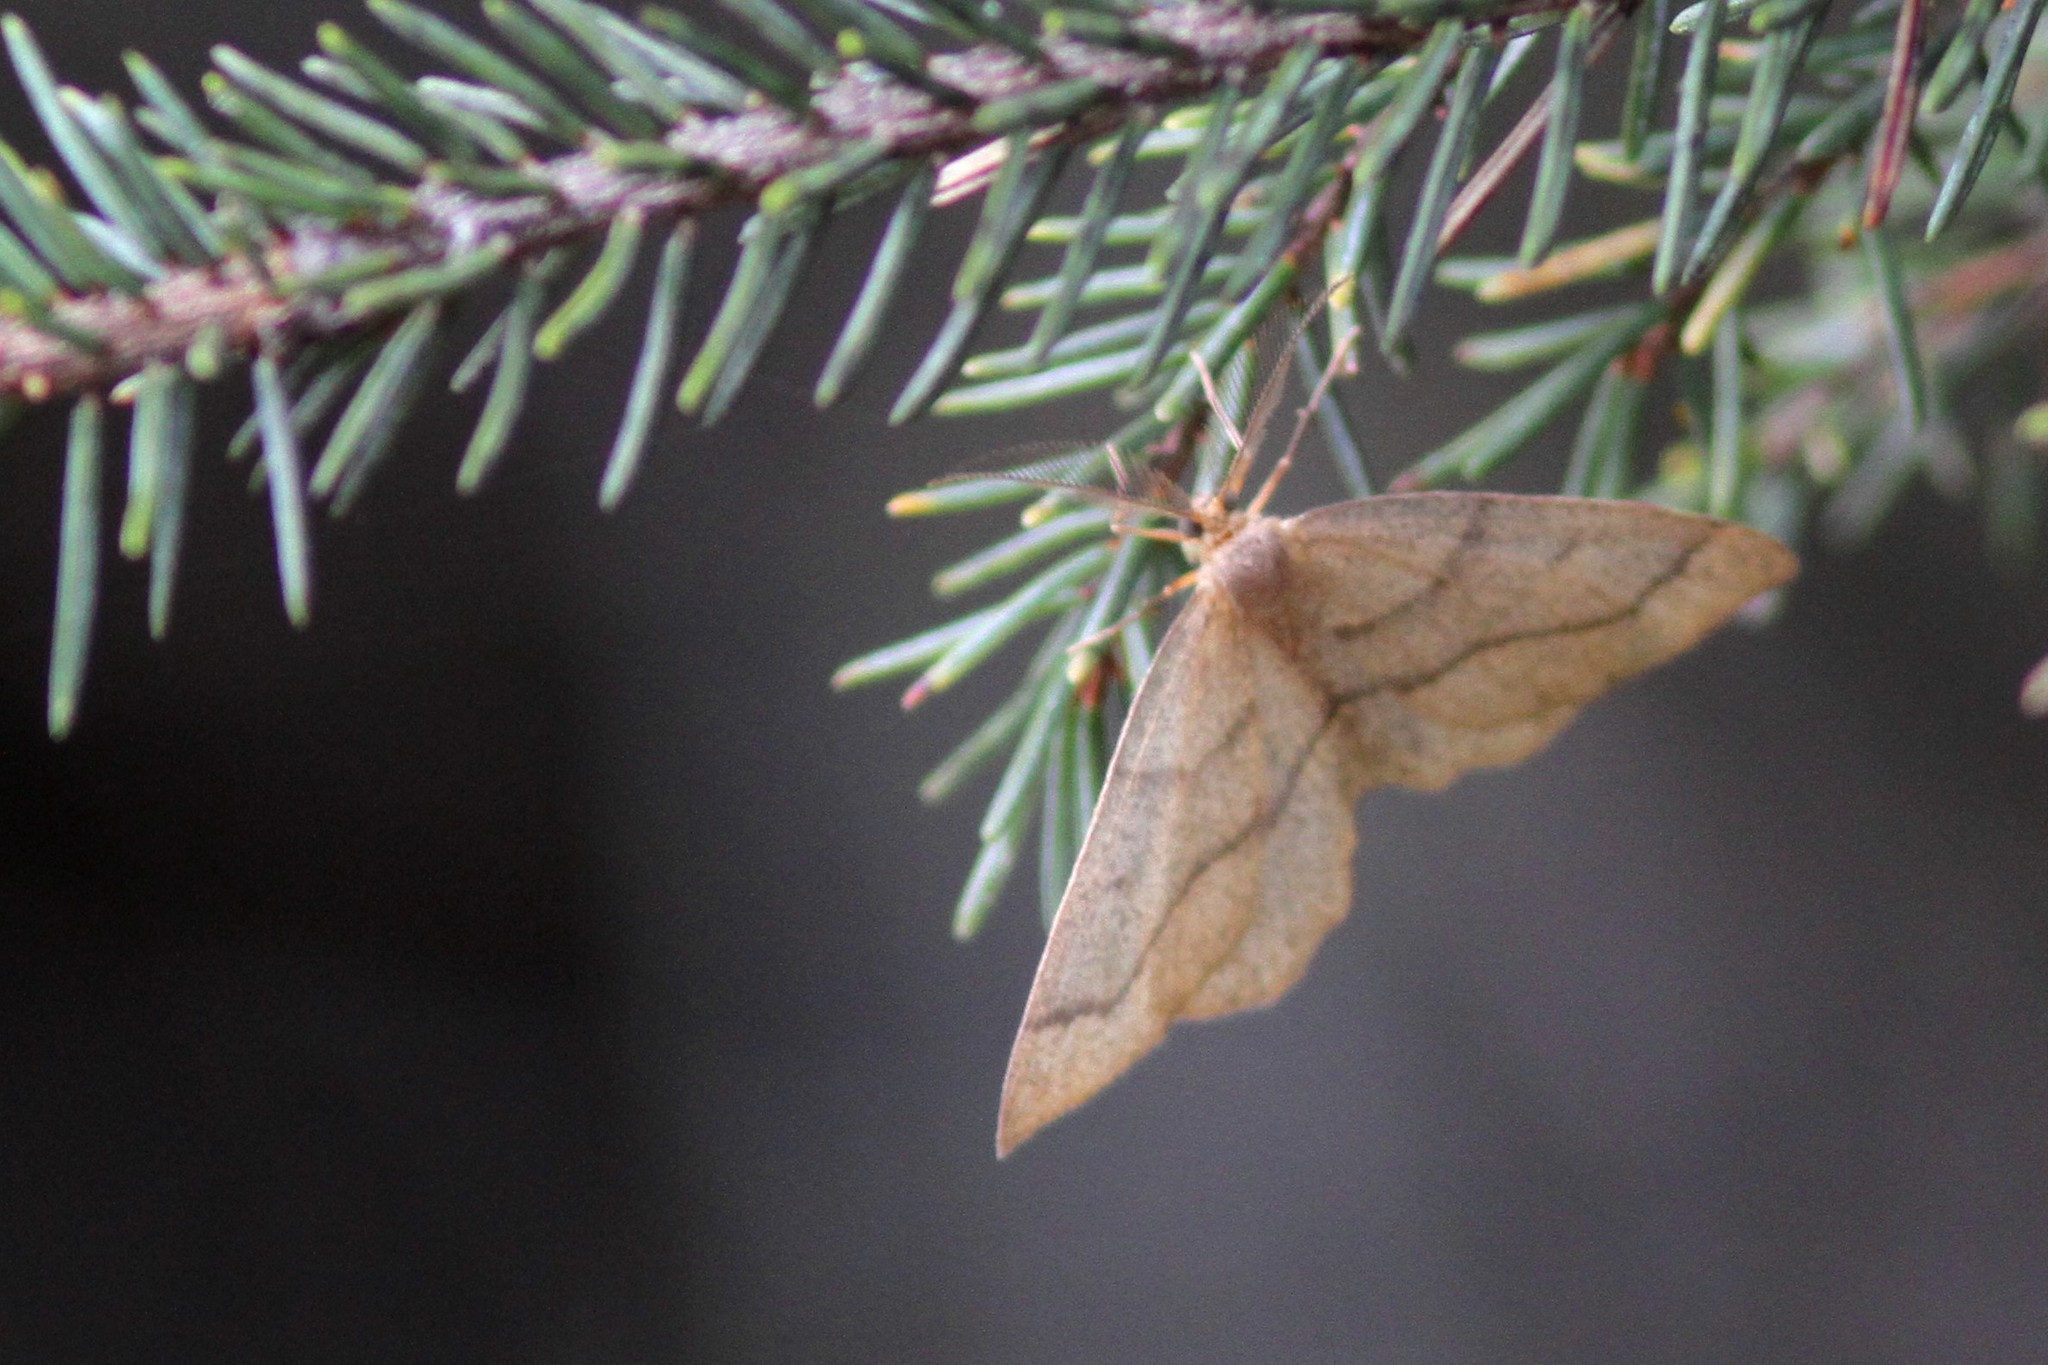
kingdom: Animalia
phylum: Arthropoda
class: Insecta
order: Lepidoptera
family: Geometridae
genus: Lambdina
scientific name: Lambdina fiscellaria
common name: Hemlock looper
